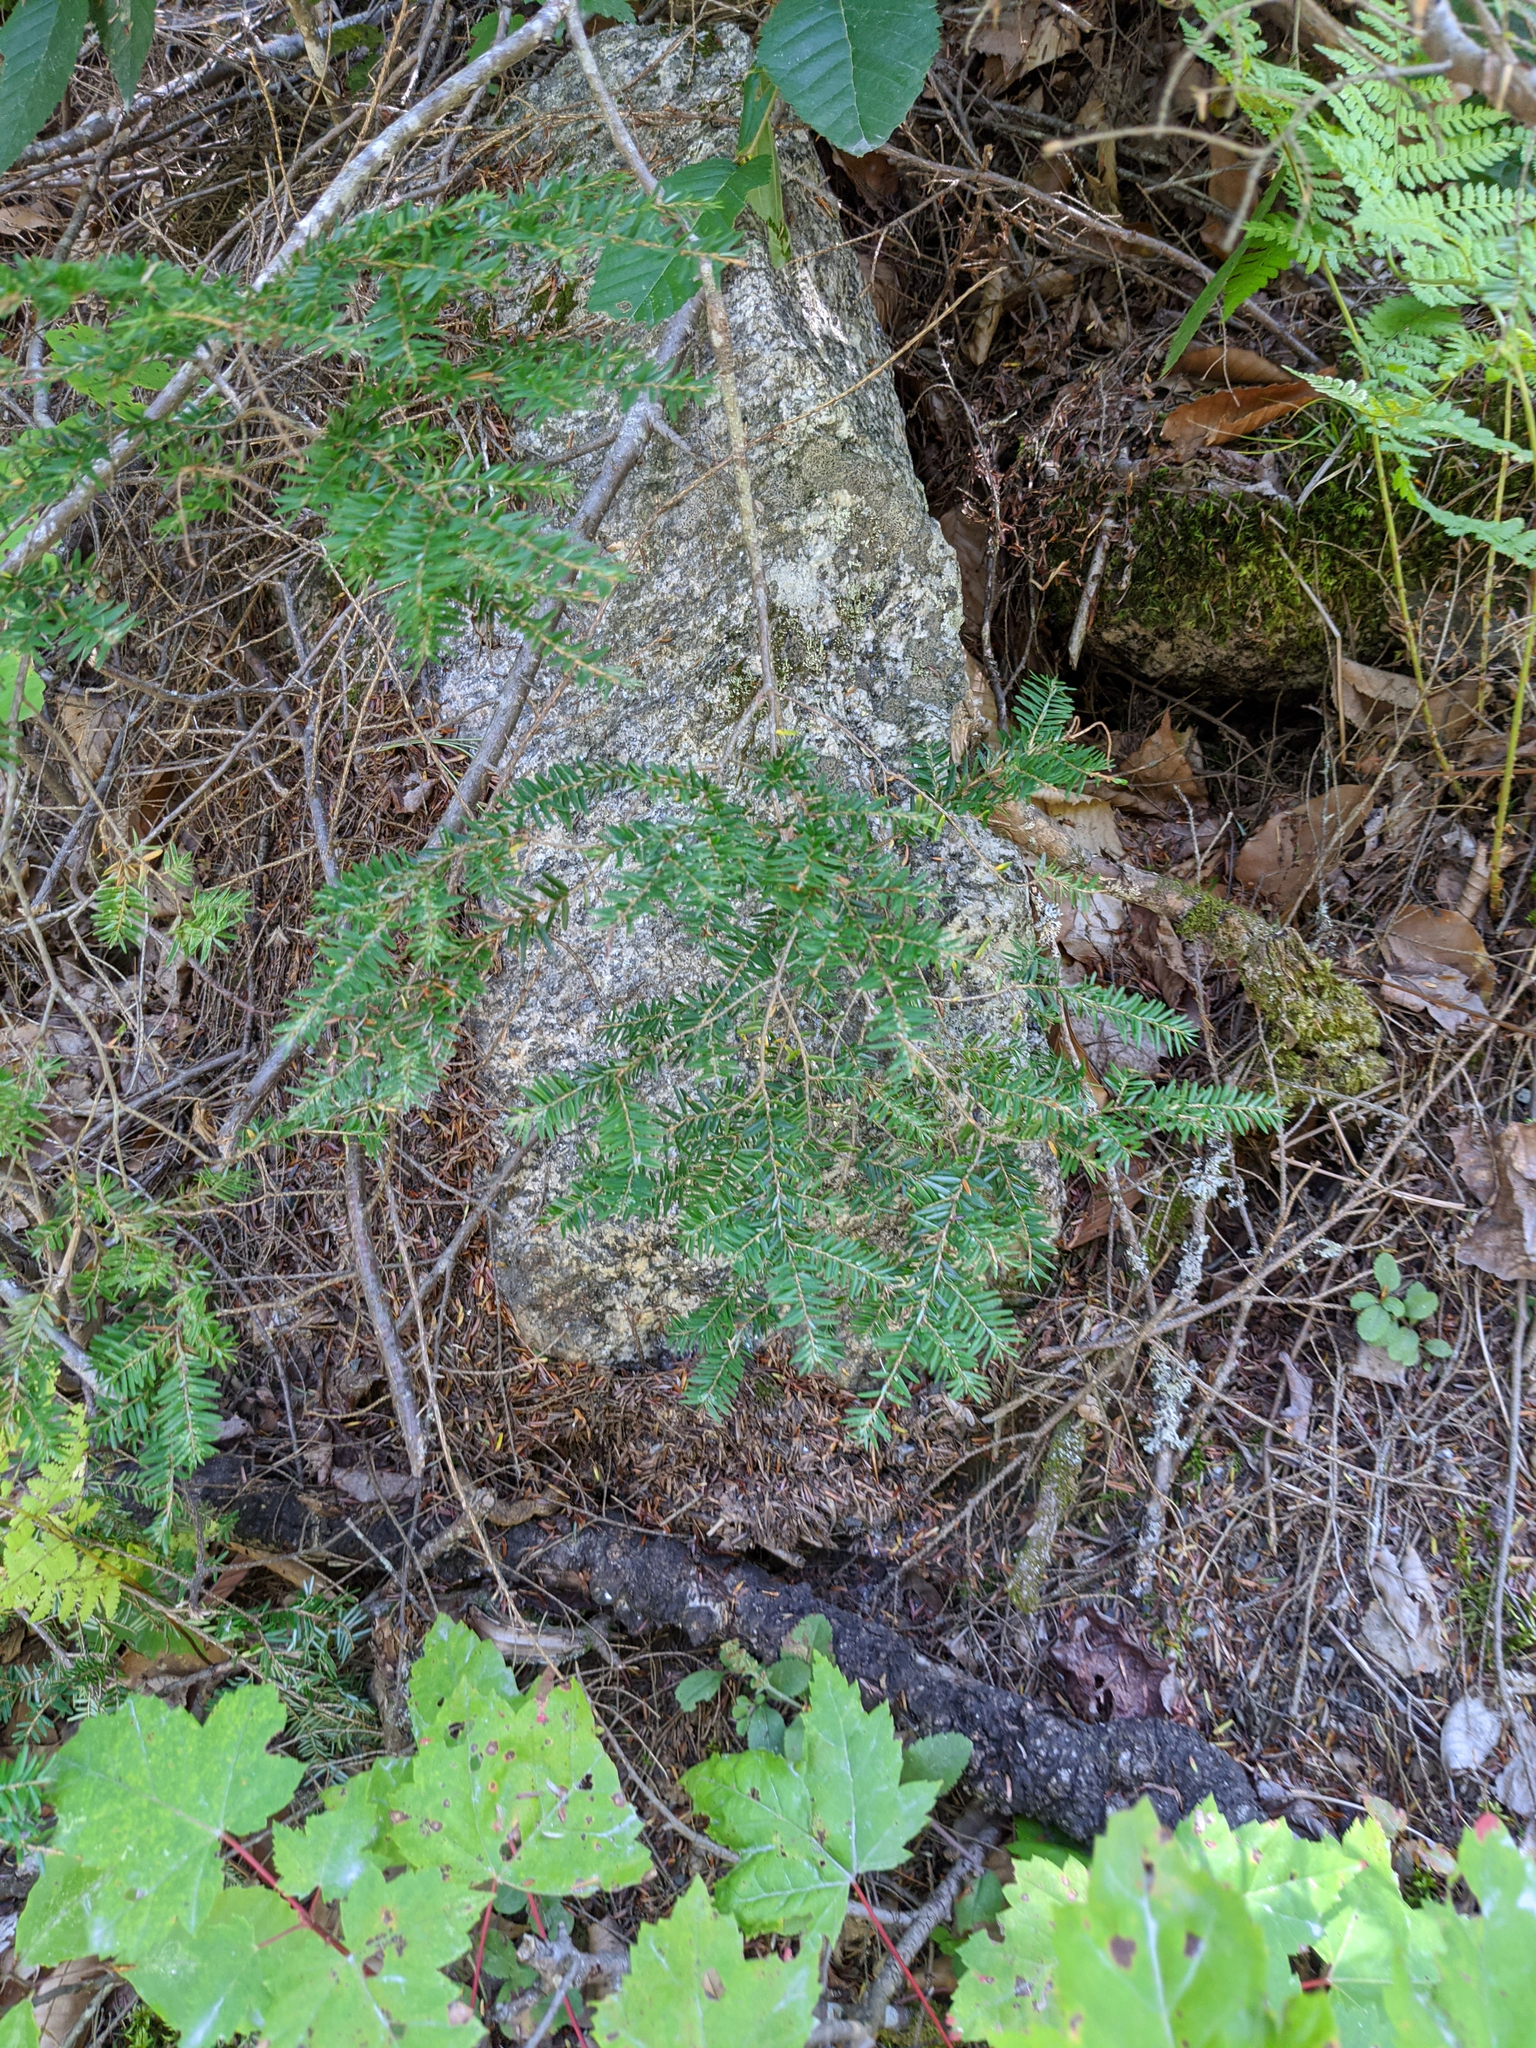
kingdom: Plantae
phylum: Tracheophyta
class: Pinopsida
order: Pinales
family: Pinaceae
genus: Tsuga
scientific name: Tsuga canadensis
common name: Eastern hemlock
